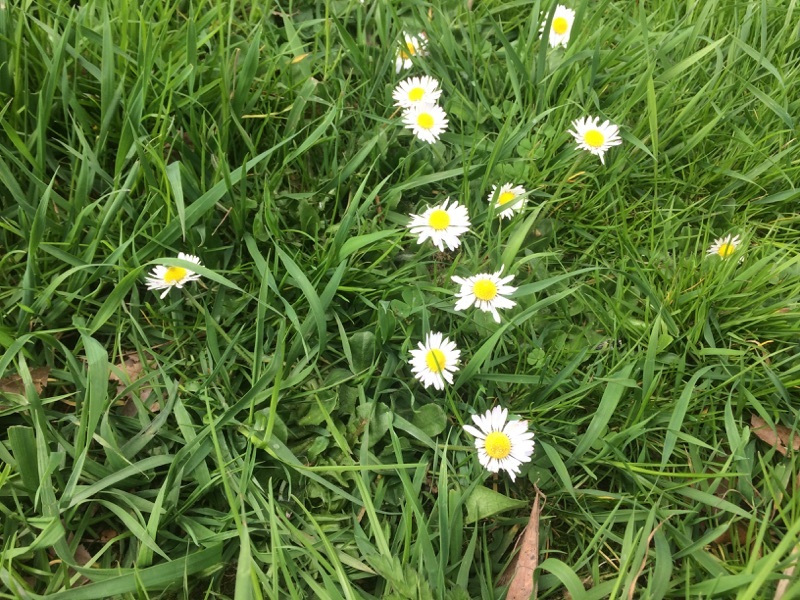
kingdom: Plantae
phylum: Tracheophyta
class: Magnoliopsida
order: Asterales
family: Asteraceae
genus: Bellis
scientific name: Bellis perennis
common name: Lawndaisy
